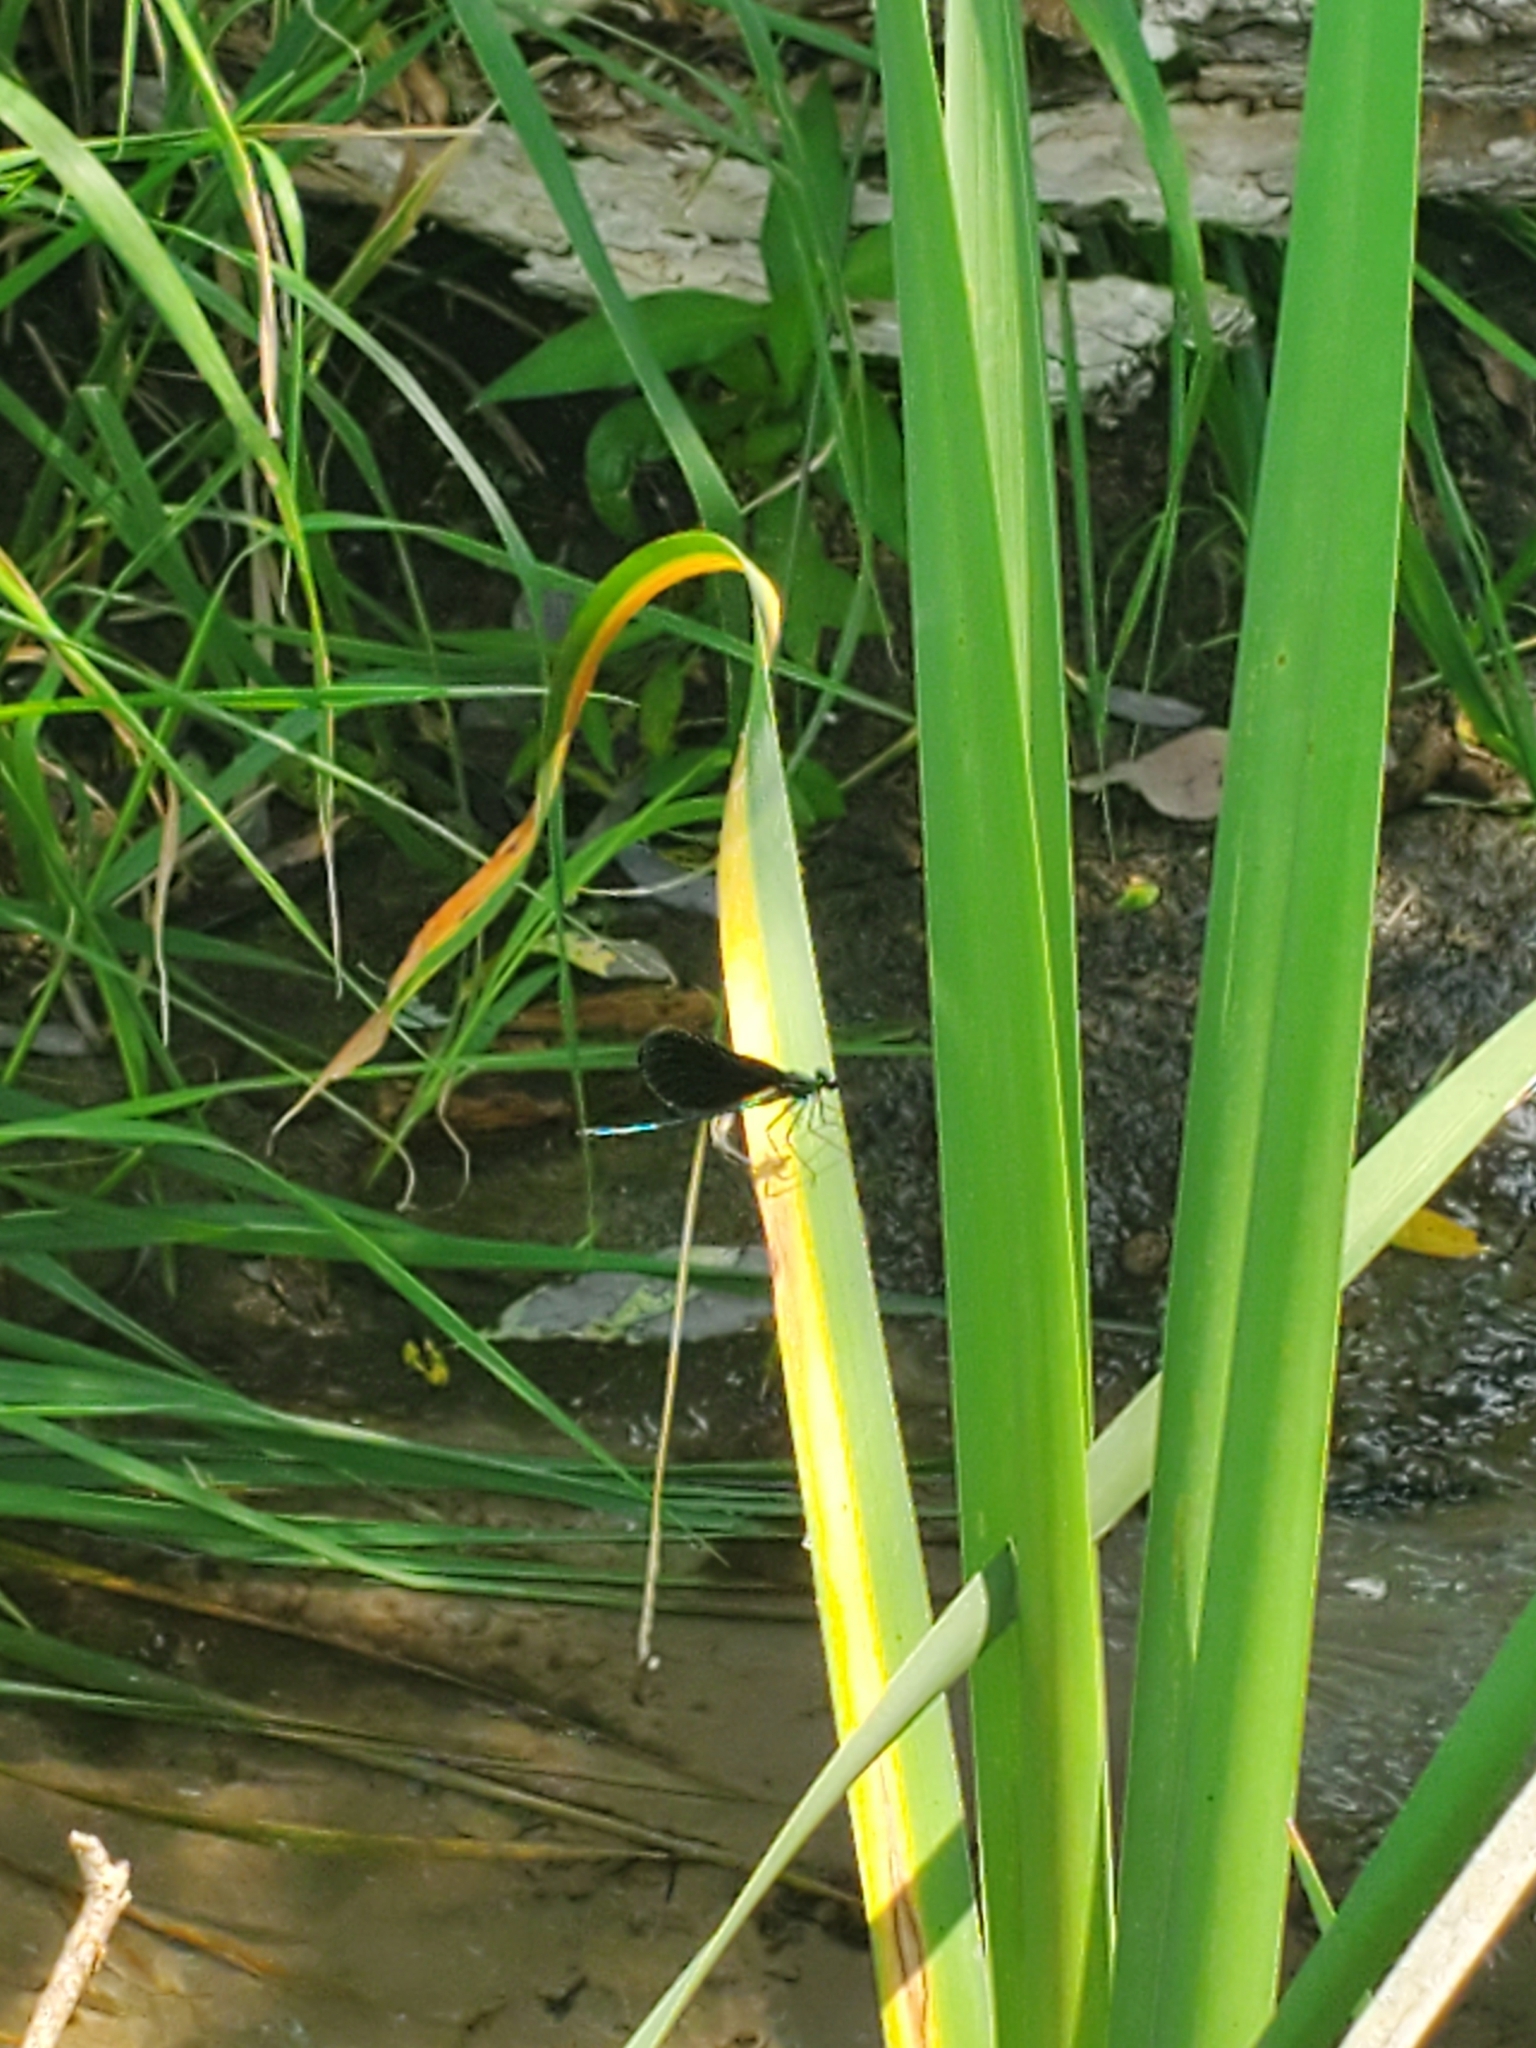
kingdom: Animalia
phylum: Arthropoda
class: Insecta
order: Odonata
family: Calopterygidae
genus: Calopteryx
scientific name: Calopteryx maculata
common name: Ebony jewelwing
